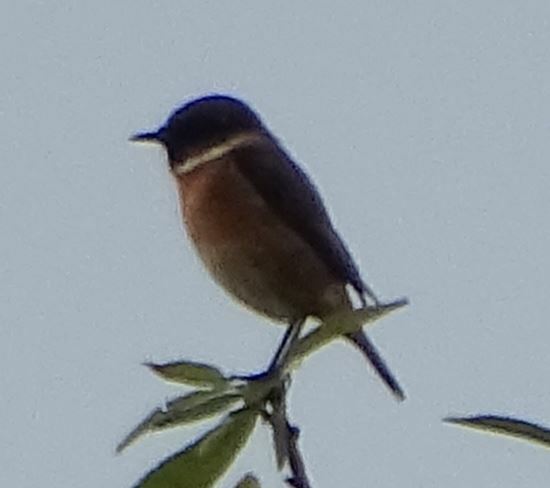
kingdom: Animalia
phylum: Chordata
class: Aves
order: Passeriformes
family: Muscicapidae
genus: Saxicola
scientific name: Saxicola rubicola
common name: European stonechat
